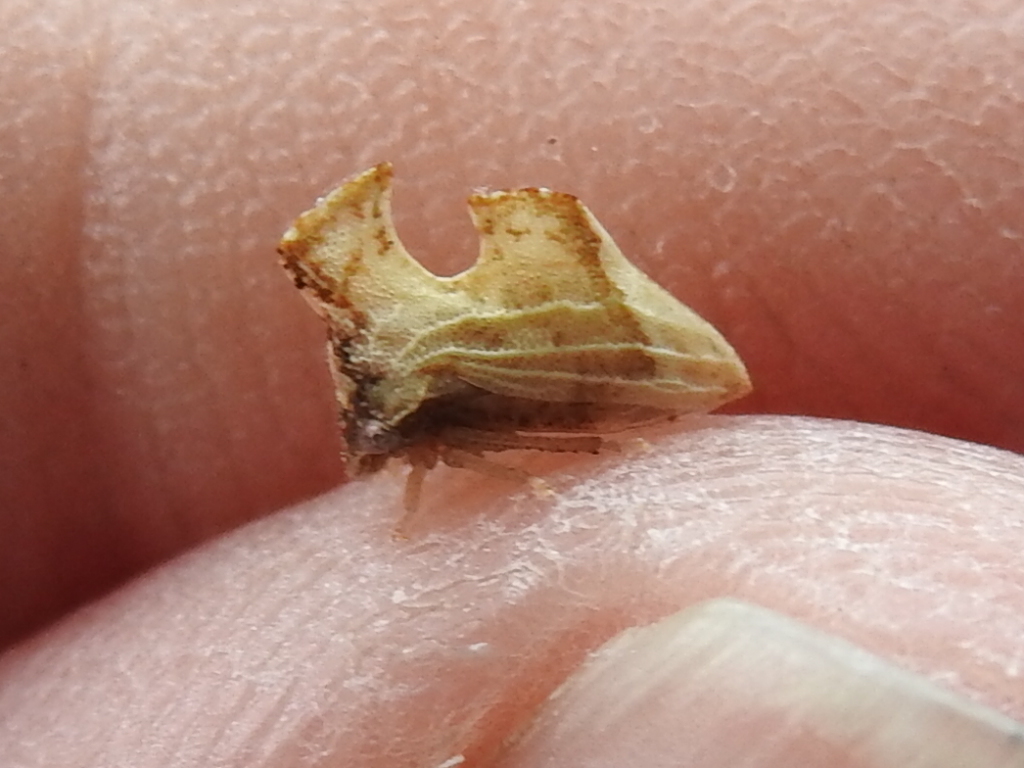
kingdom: Animalia
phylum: Arthropoda
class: Insecta
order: Hemiptera
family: Membracidae
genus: Entylia
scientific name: Entylia carinata
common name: Keeled treehopper
